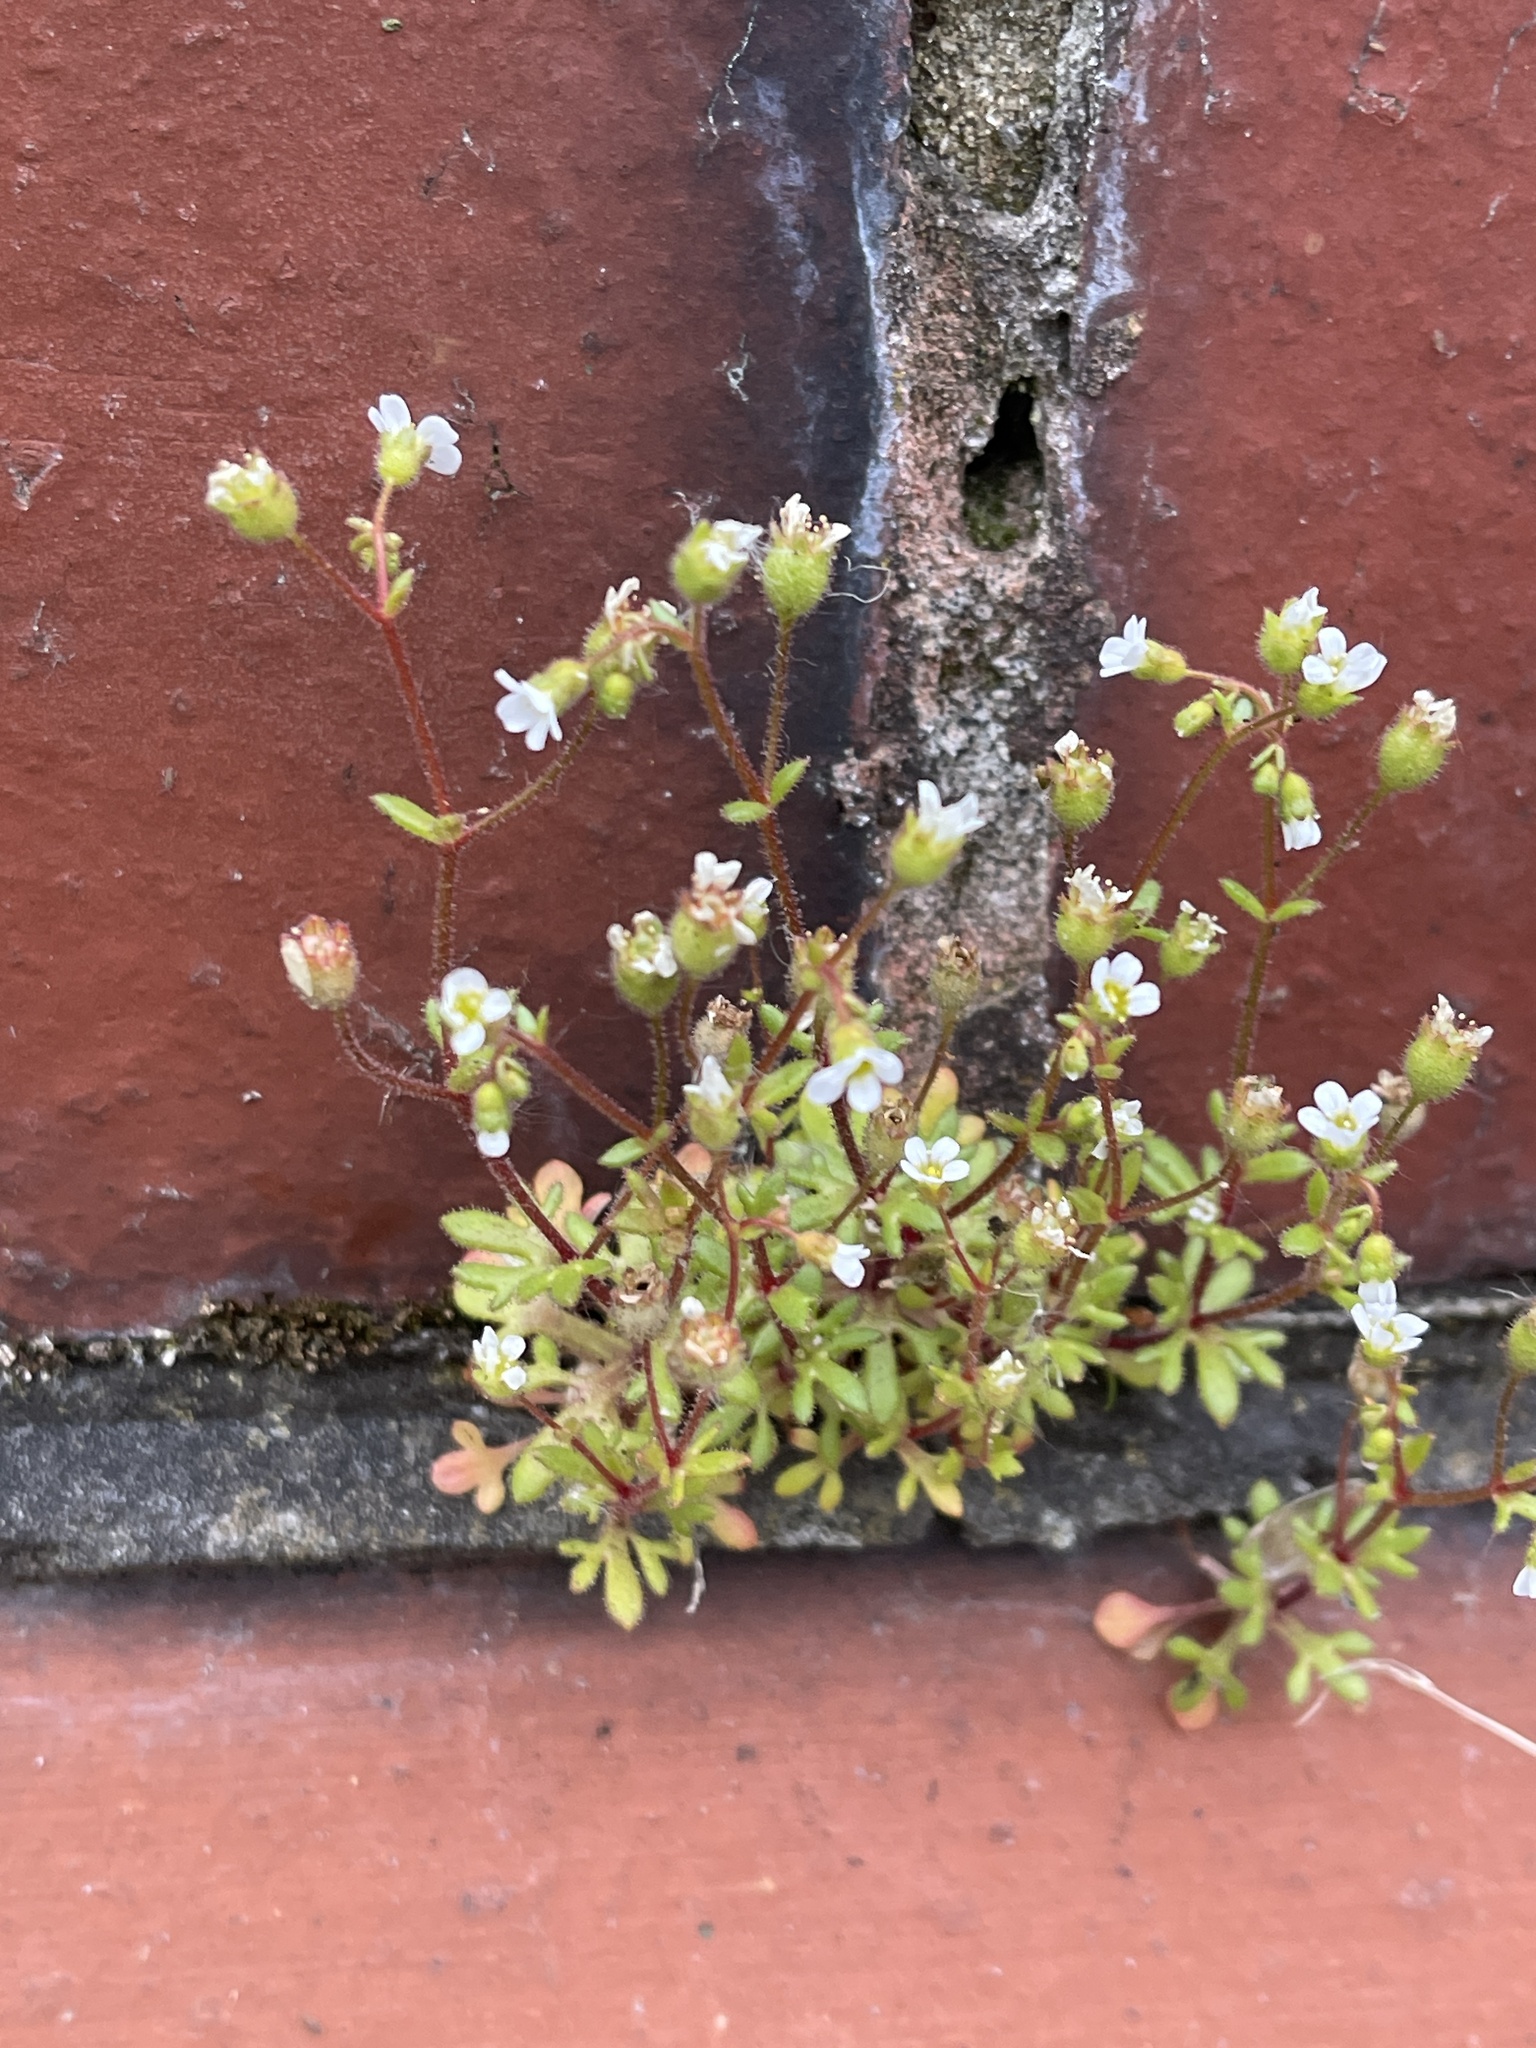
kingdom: Plantae
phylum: Tracheophyta
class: Magnoliopsida
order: Saxifragales
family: Saxifragaceae
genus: Saxifraga
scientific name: Saxifraga tridactylites
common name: Rue-leaved saxifrage
